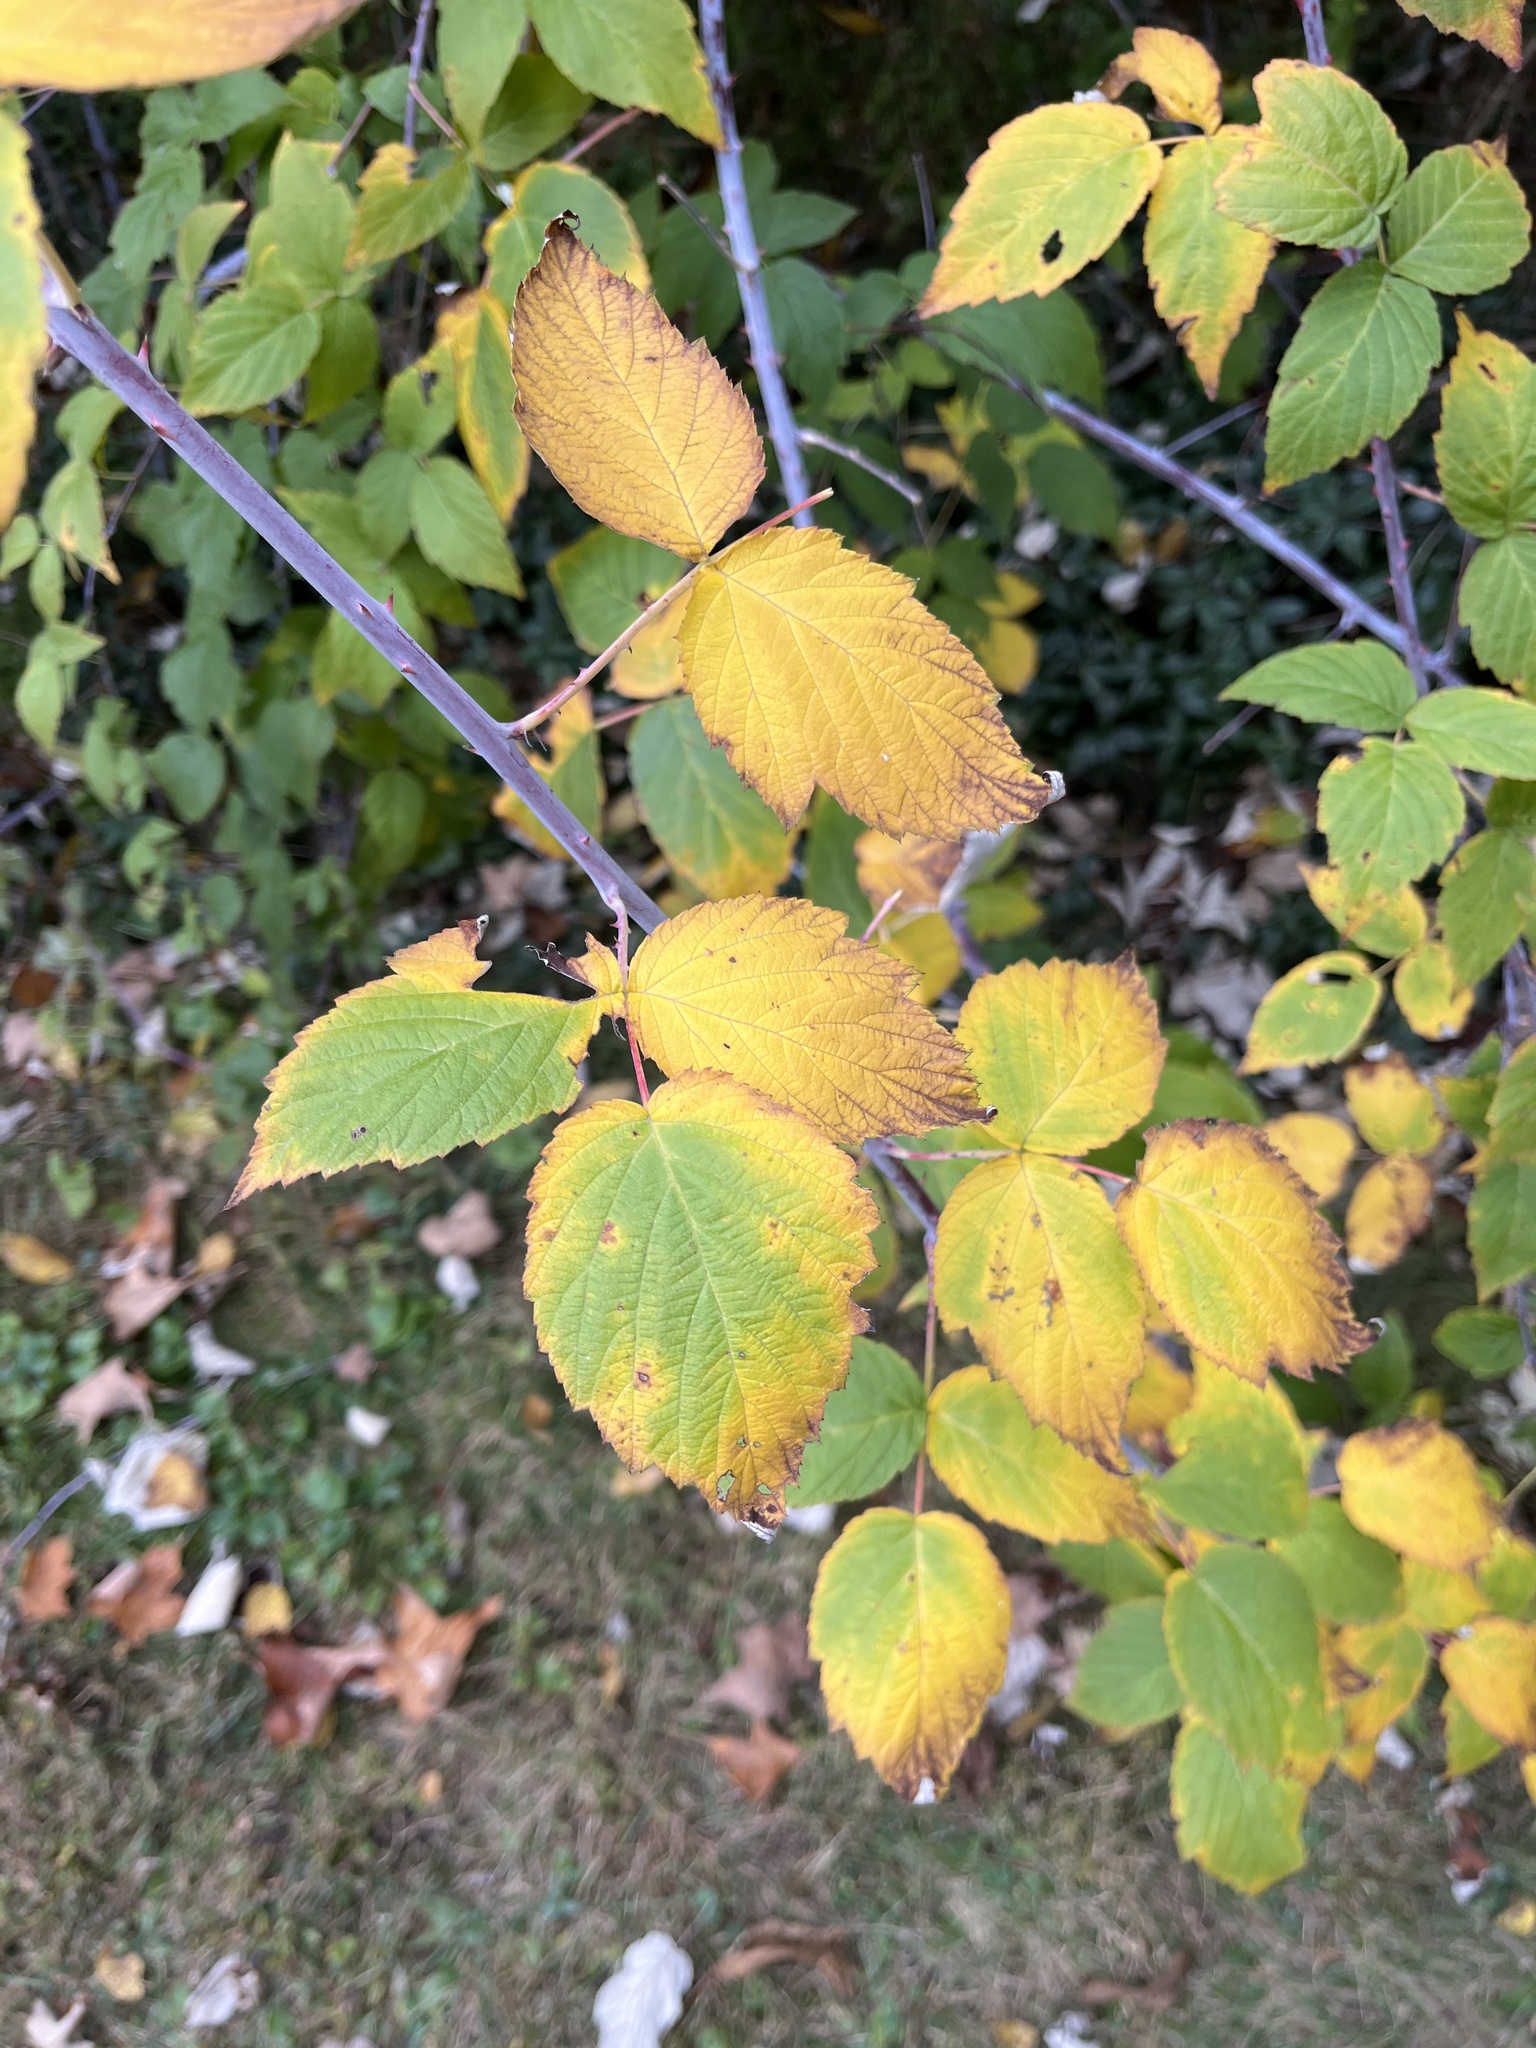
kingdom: Plantae
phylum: Tracheophyta
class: Magnoliopsida
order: Rosales
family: Rosaceae
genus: Rubus
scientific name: Rubus occidentalis
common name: Black raspberry
